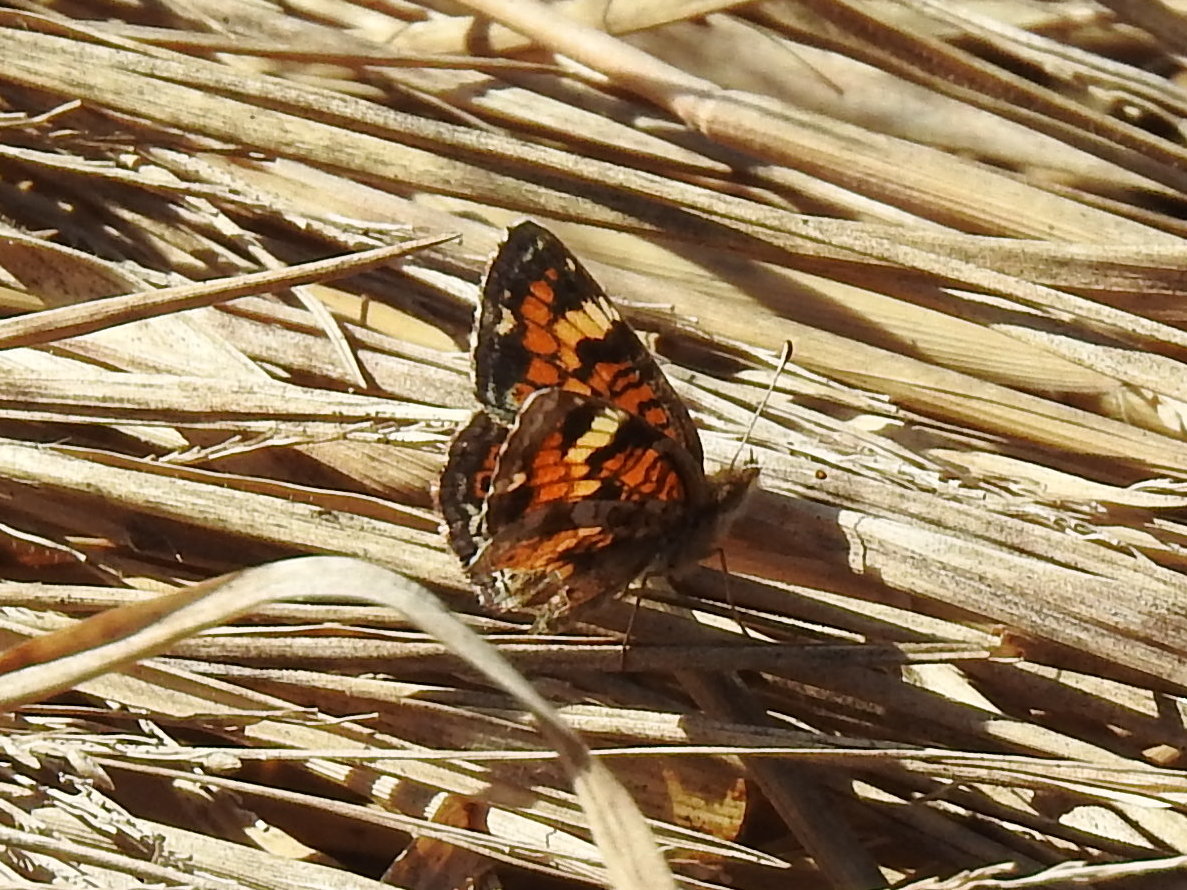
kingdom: Animalia
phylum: Arthropoda
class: Insecta
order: Lepidoptera
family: Nymphalidae
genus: Phyciodes
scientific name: Phyciodes phaon
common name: Phaon crescent
